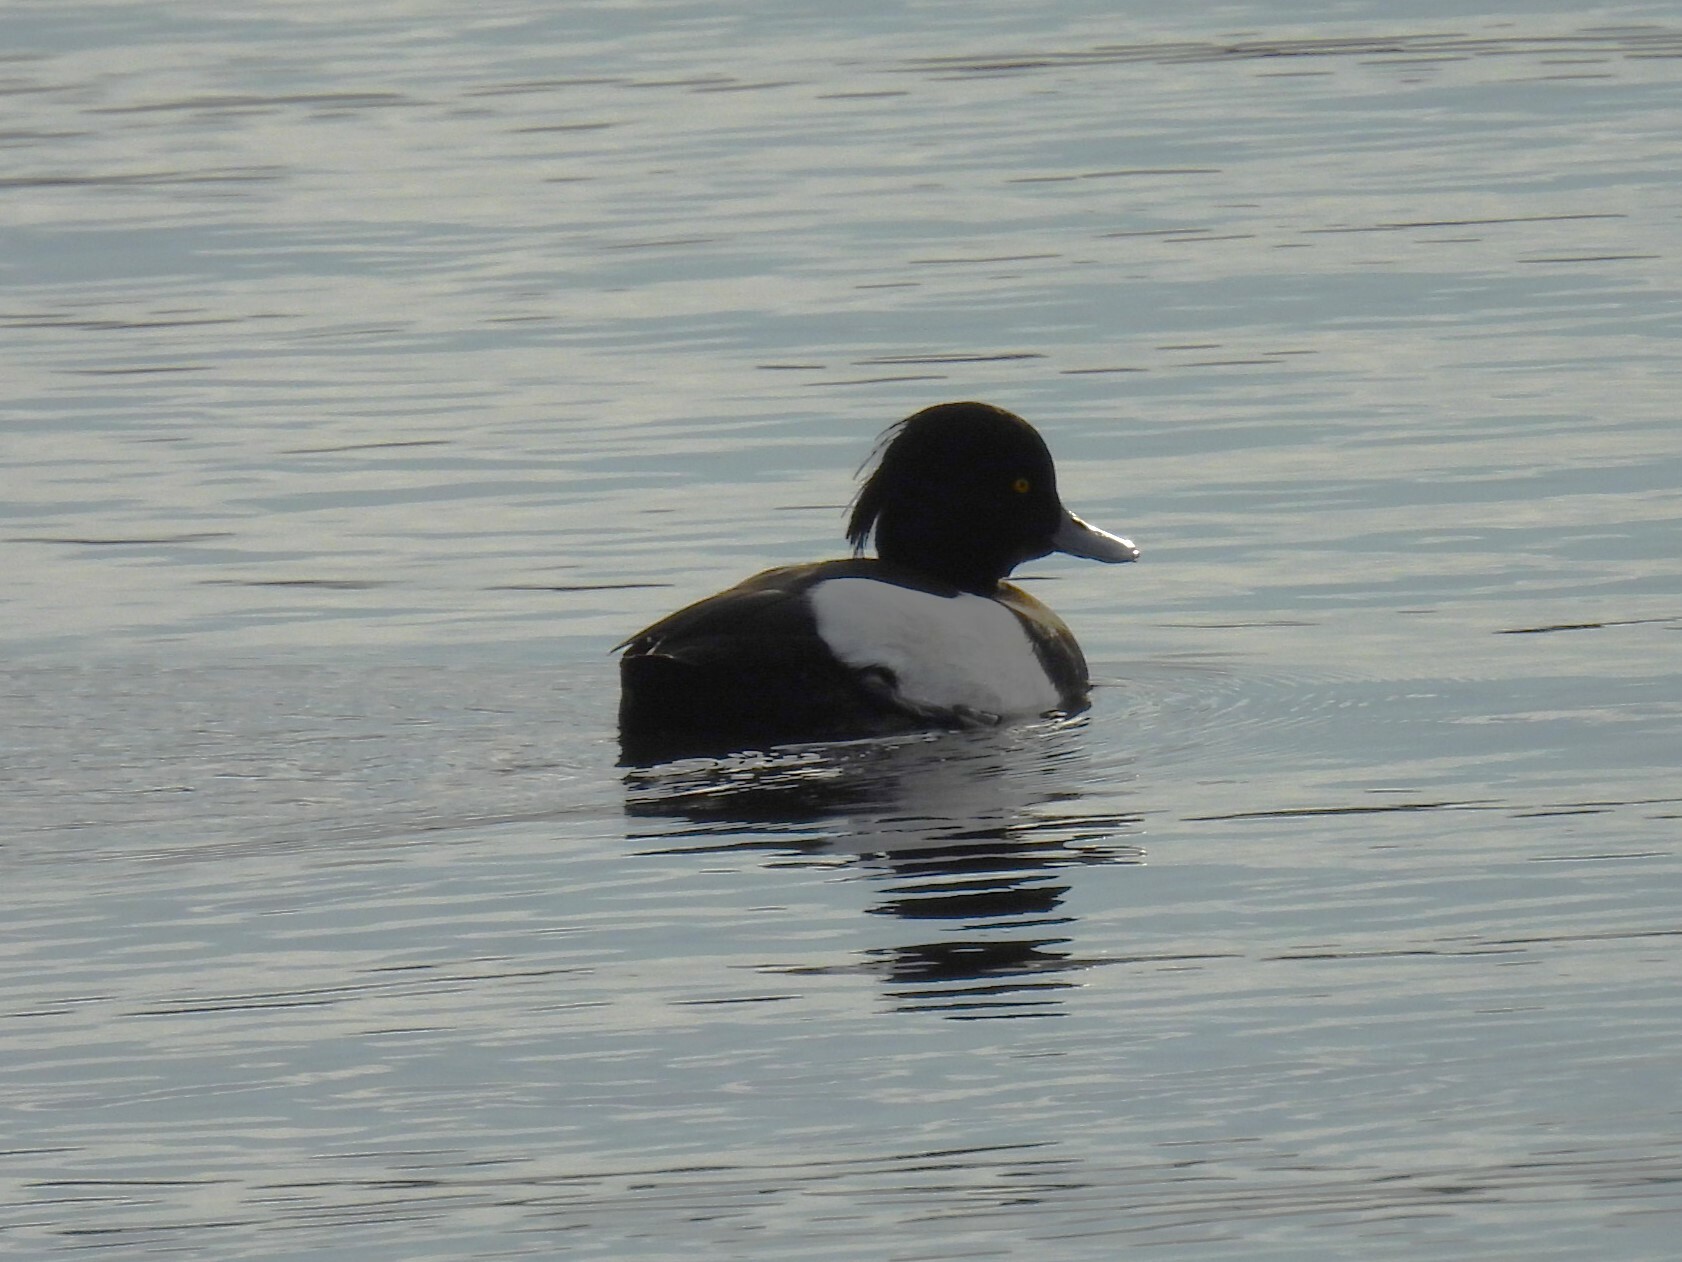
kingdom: Animalia
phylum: Chordata
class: Aves
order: Anseriformes
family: Anatidae
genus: Aythya
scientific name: Aythya fuligula
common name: Tufted duck
